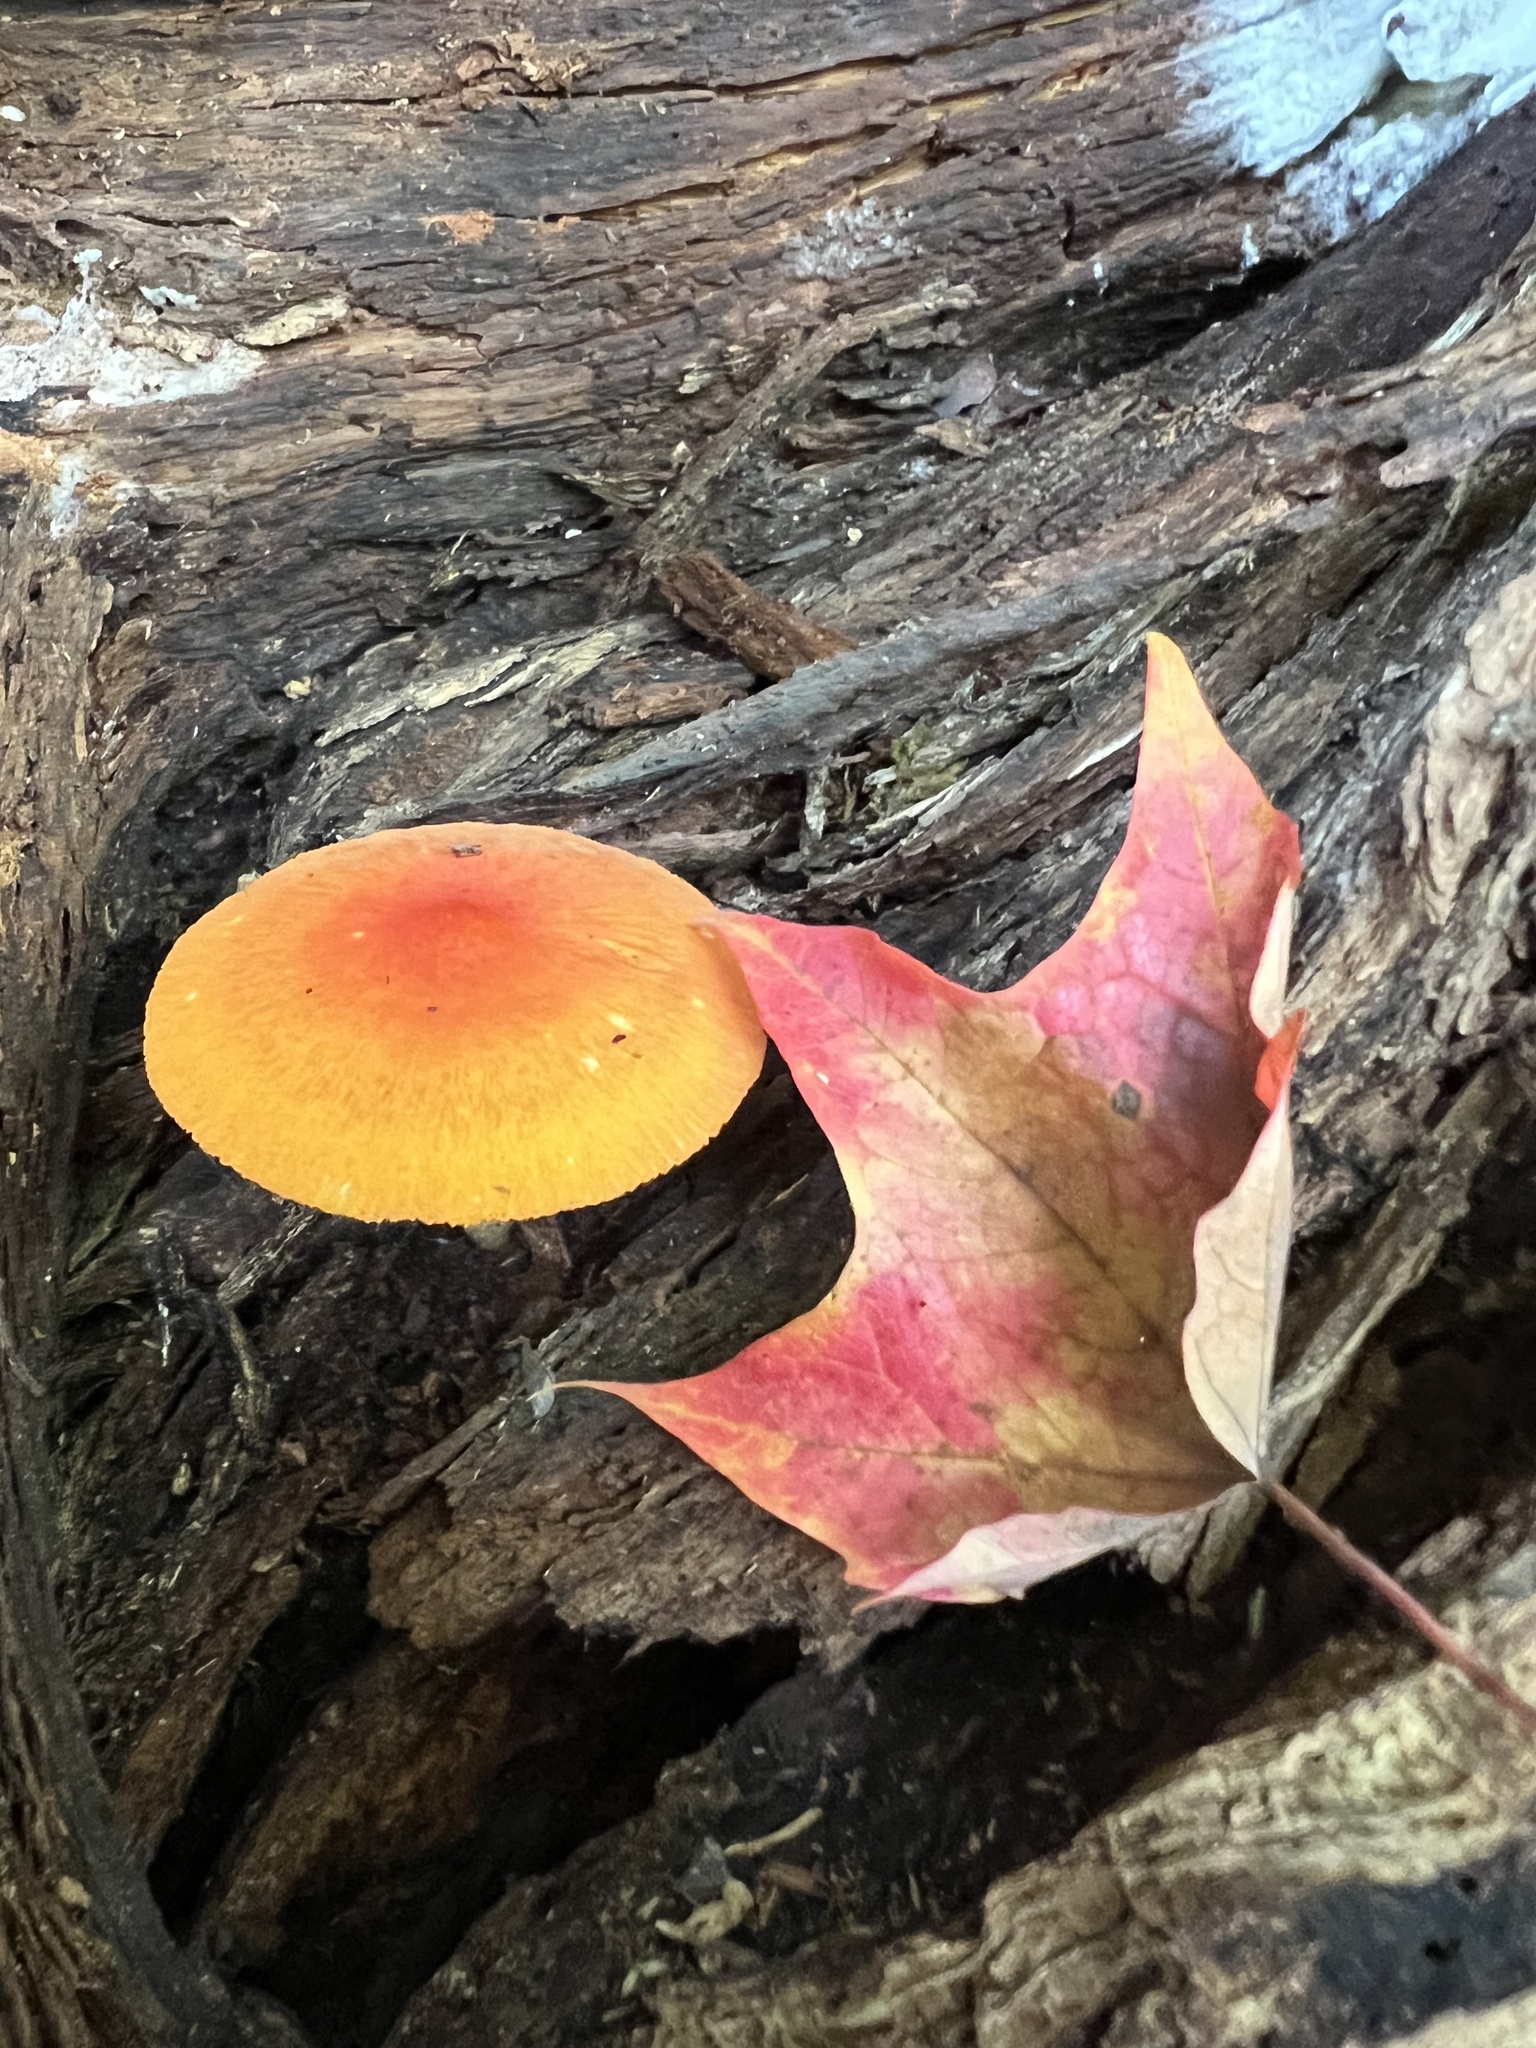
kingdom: Fungi
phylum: Basidiomycota
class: Agaricomycetes
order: Agaricales
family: Pluteaceae
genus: Pluteus
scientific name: Pluteus aurantiorugosus
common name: Flame shield
